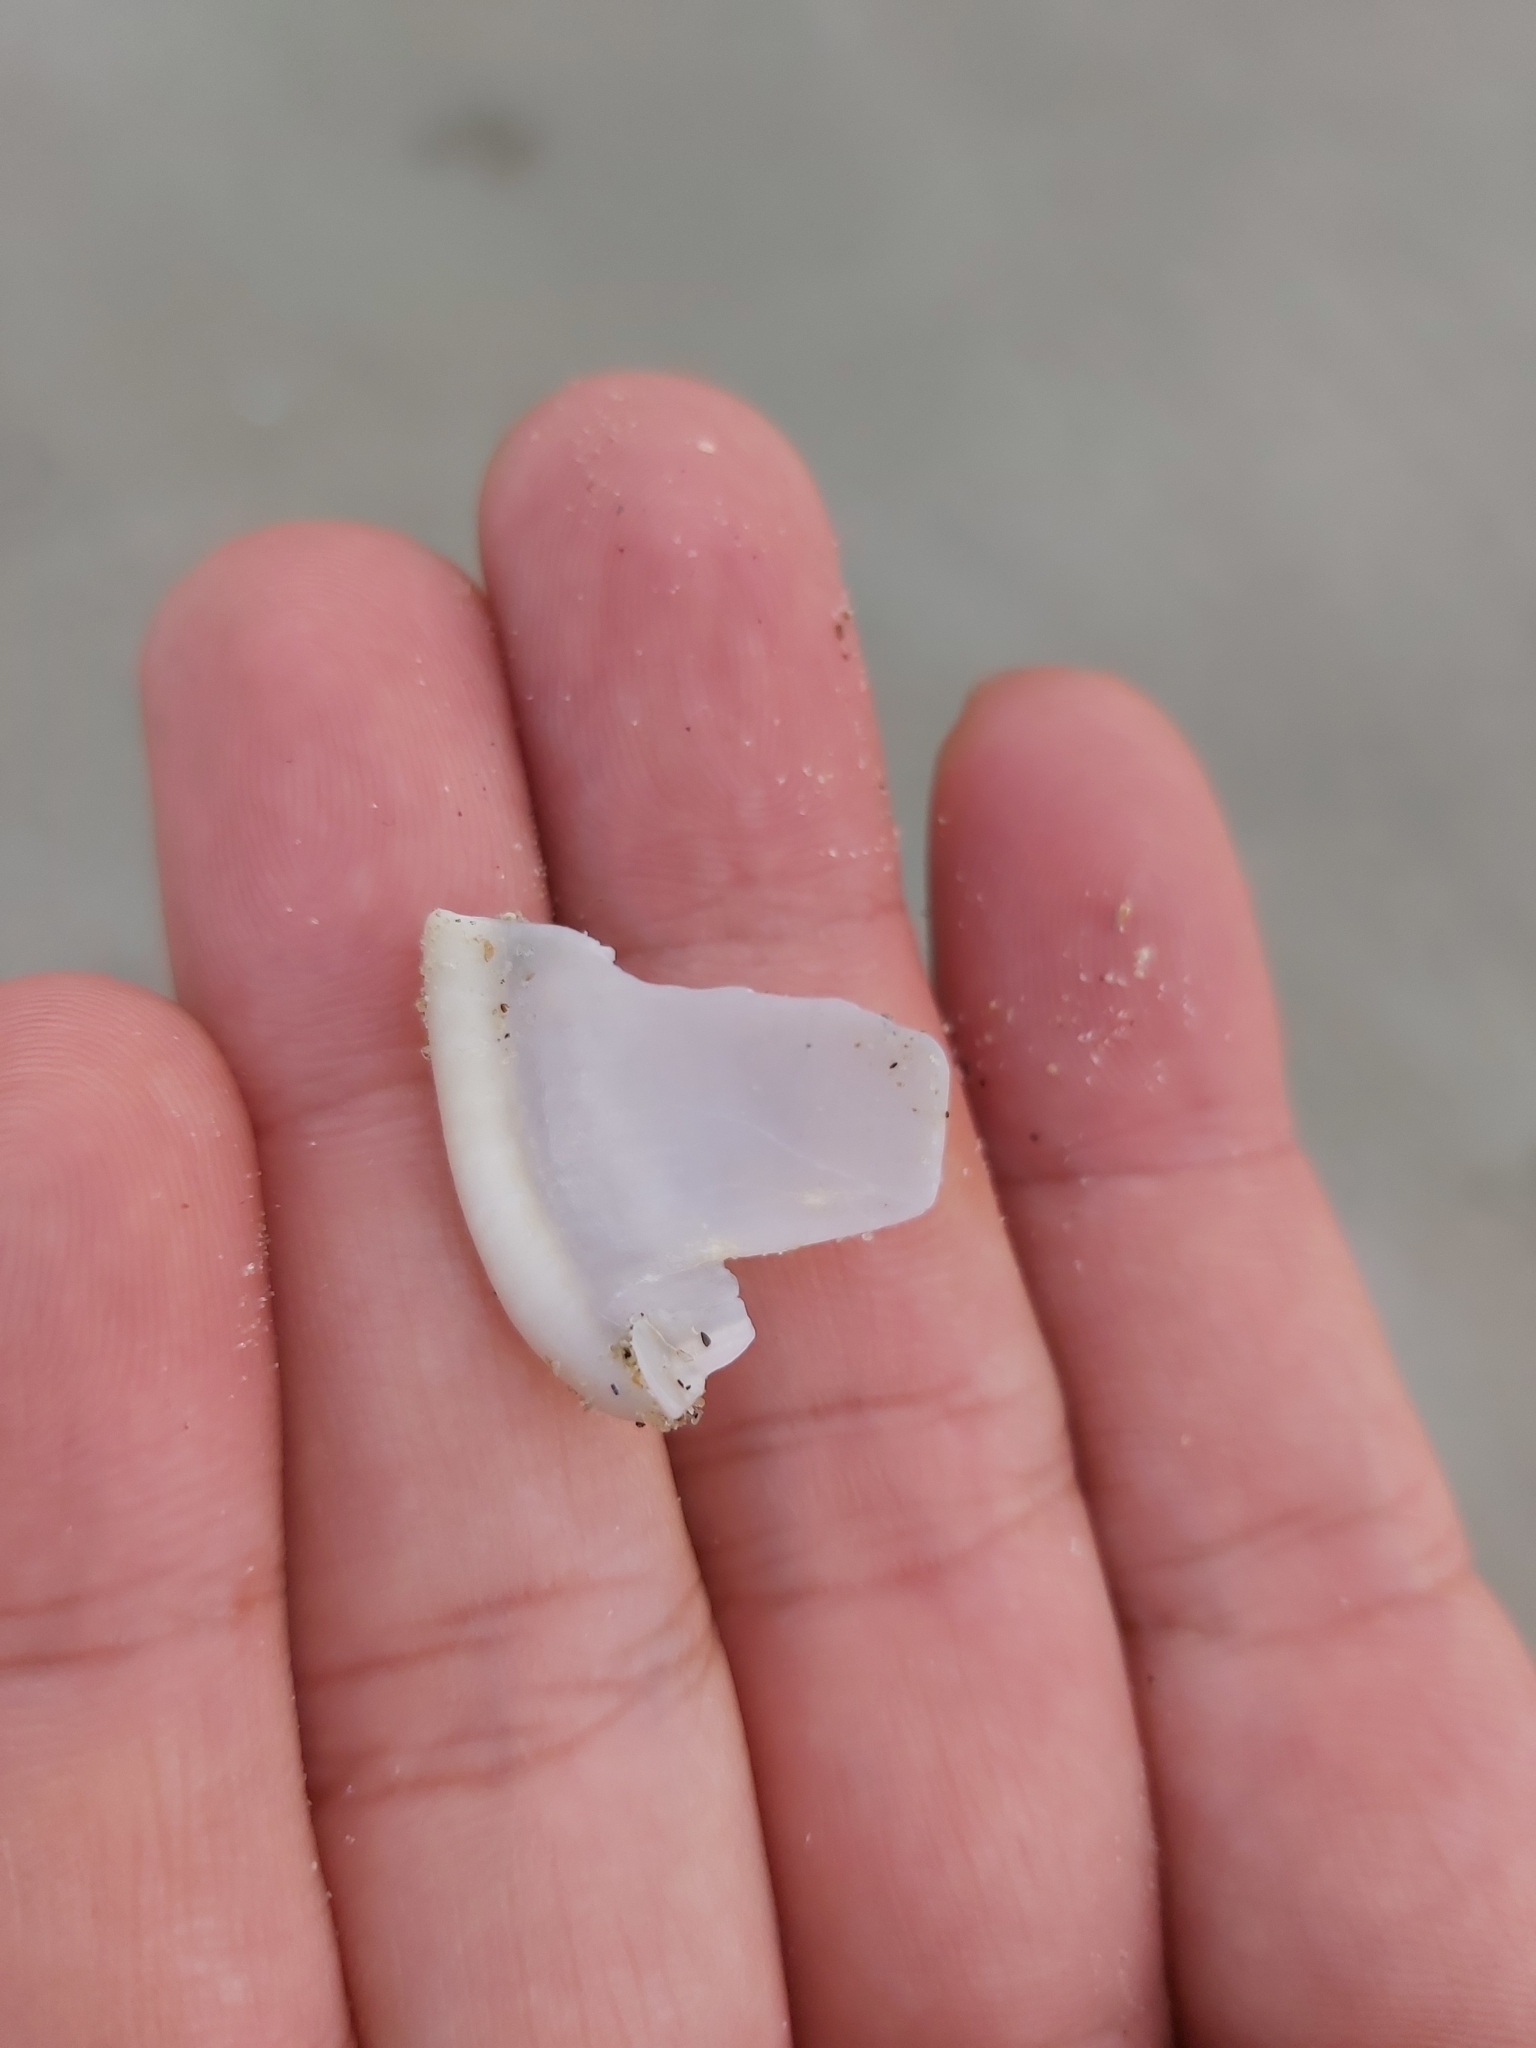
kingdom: Animalia
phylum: Mollusca
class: Gastropoda
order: Littorinimorpha
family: Cassidae
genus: Semicassis
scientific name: Semicassis bisulcata
